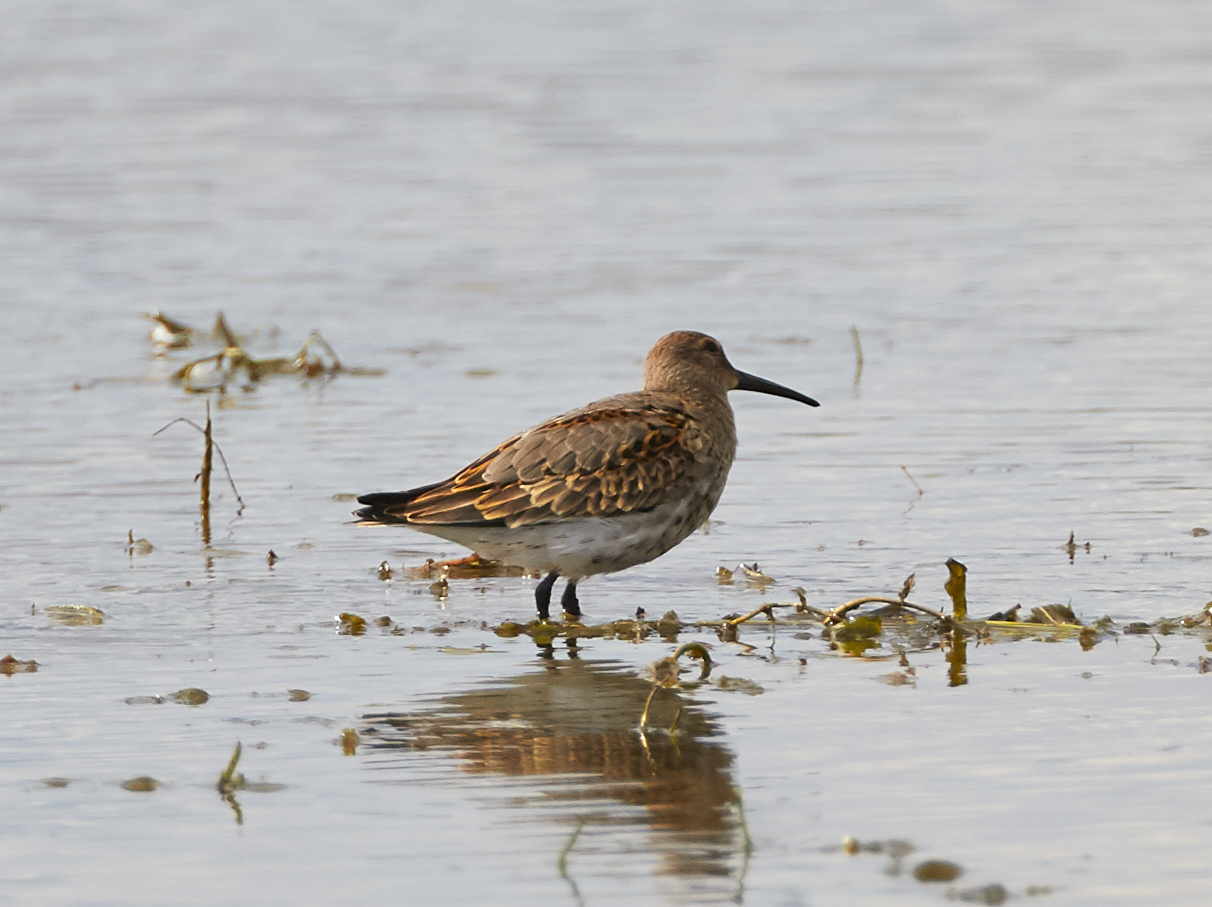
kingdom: Animalia
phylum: Chordata
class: Aves
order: Charadriiformes
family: Scolopacidae
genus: Calidris
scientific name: Calidris alpina
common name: Dunlin
